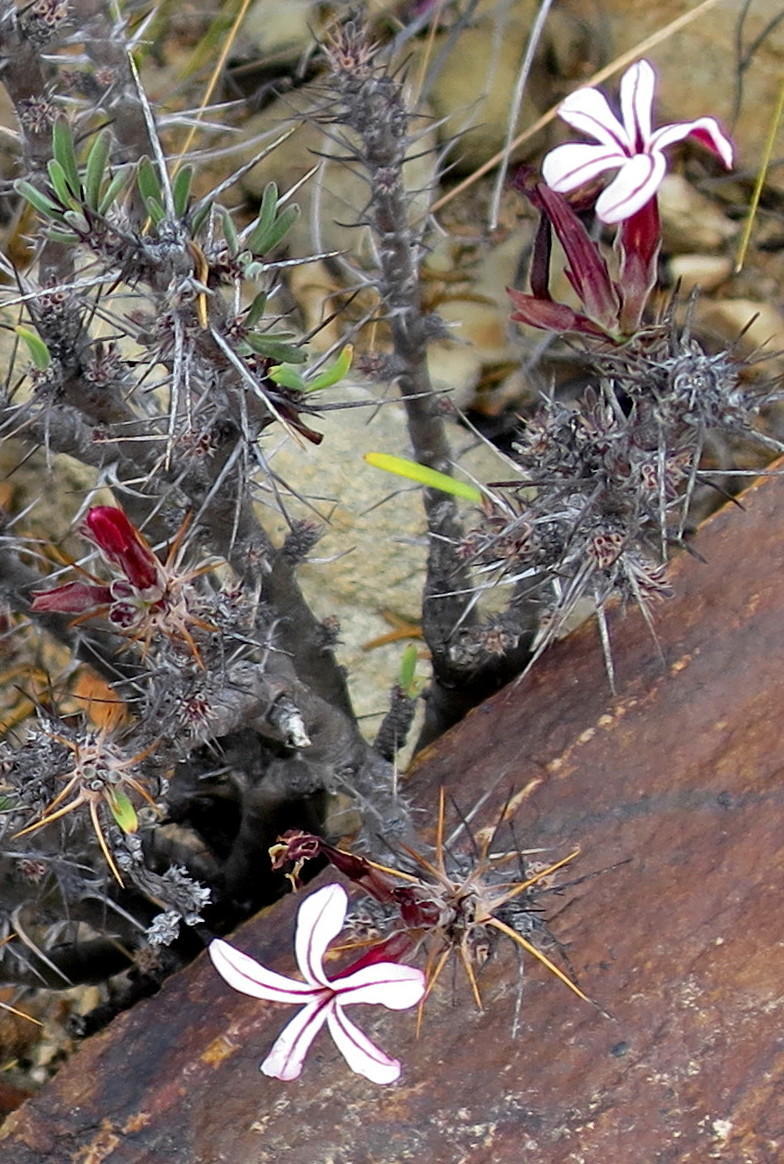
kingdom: Plantae
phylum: Tracheophyta
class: Magnoliopsida
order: Gentianales
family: Apocynaceae
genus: Pachypodium
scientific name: Pachypodium succulentum
